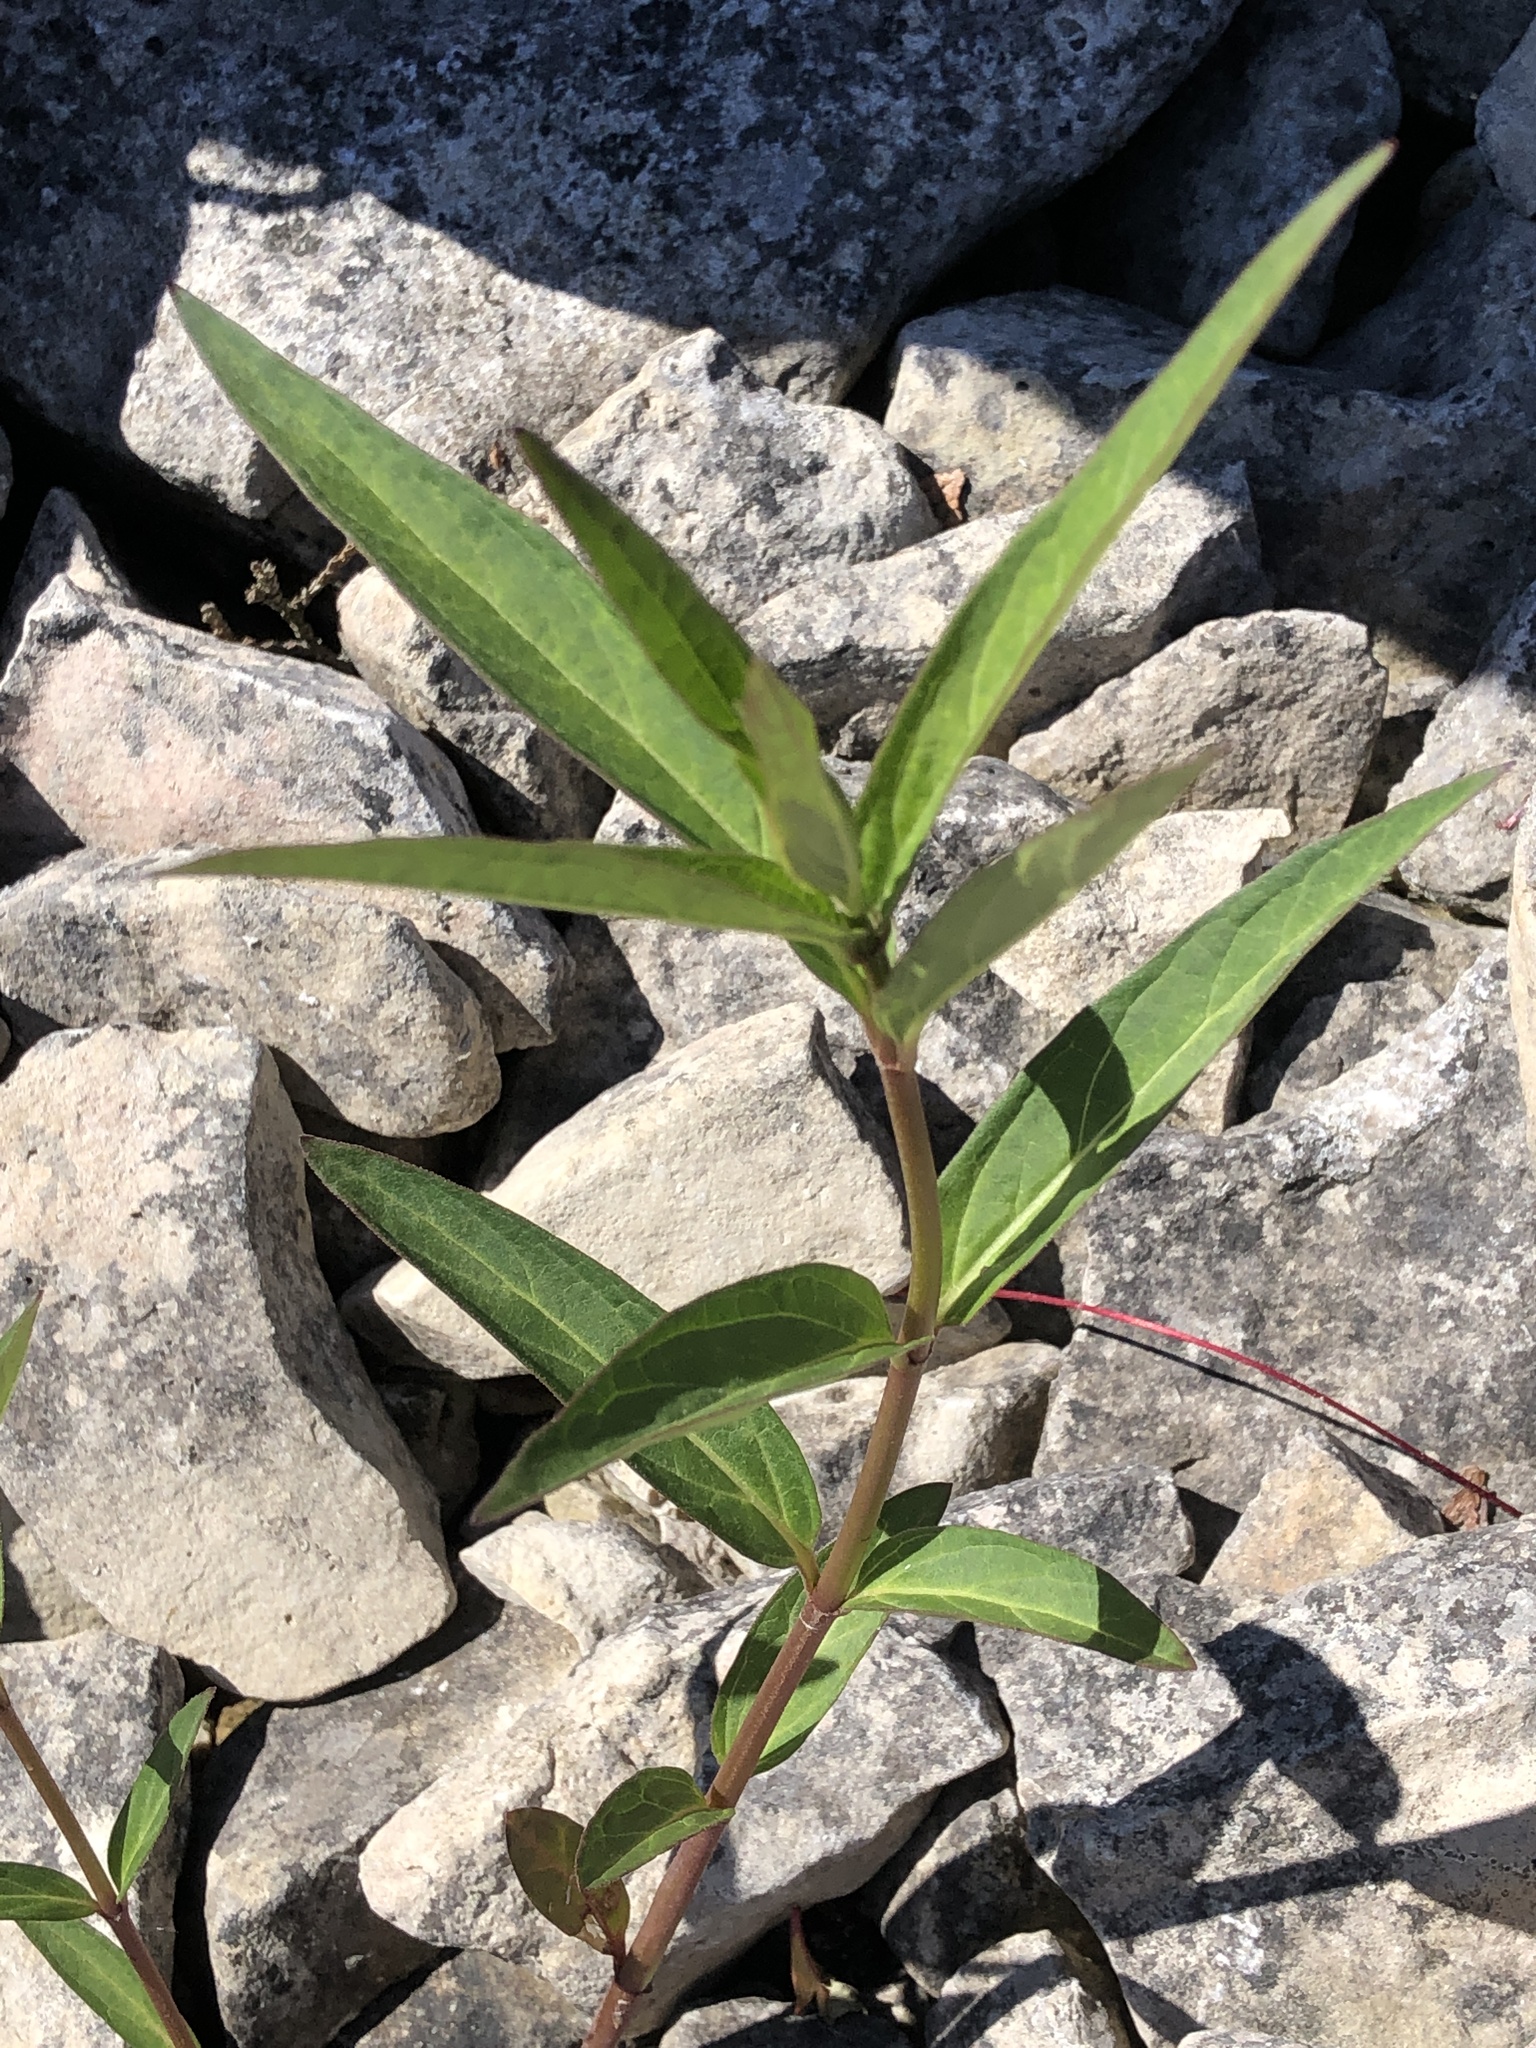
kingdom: Plantae
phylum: Tracheophyta
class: Magnoliopsida
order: Gentianales
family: Apocynaceae
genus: Asclepias
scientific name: Asclepias incarnata
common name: Swamp milkweed
